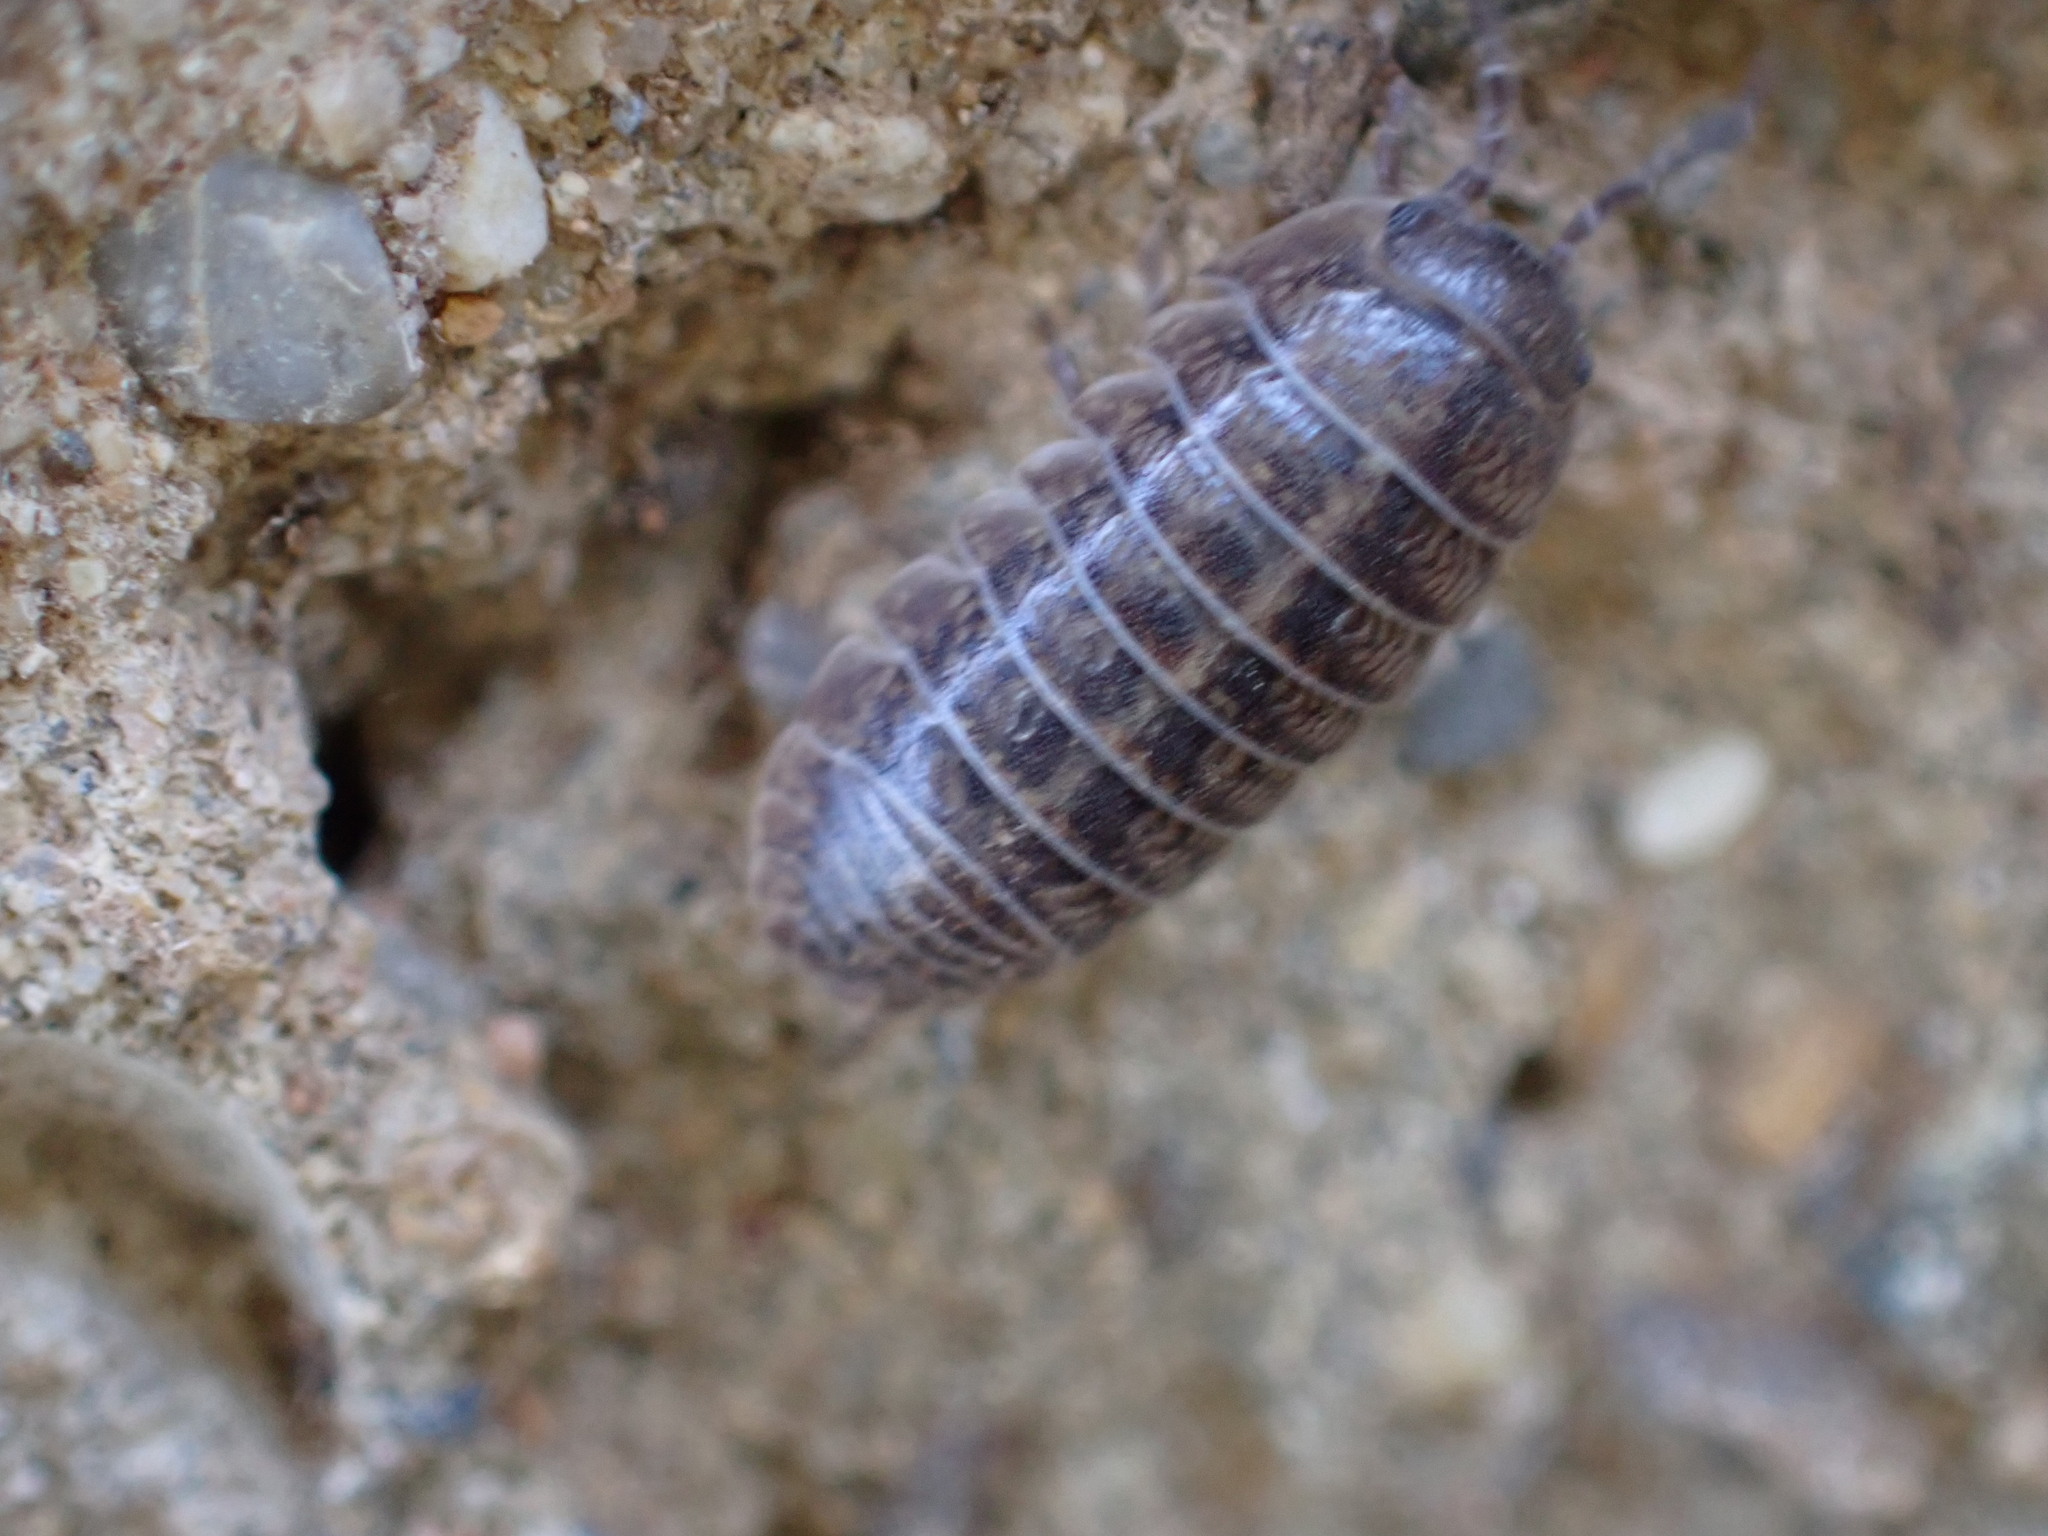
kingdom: Animalia
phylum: Arthropoda
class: Malacostraca
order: Isopoda
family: Armadillidiidae
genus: Armadillidium
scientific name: Armadillidium arcangelii
